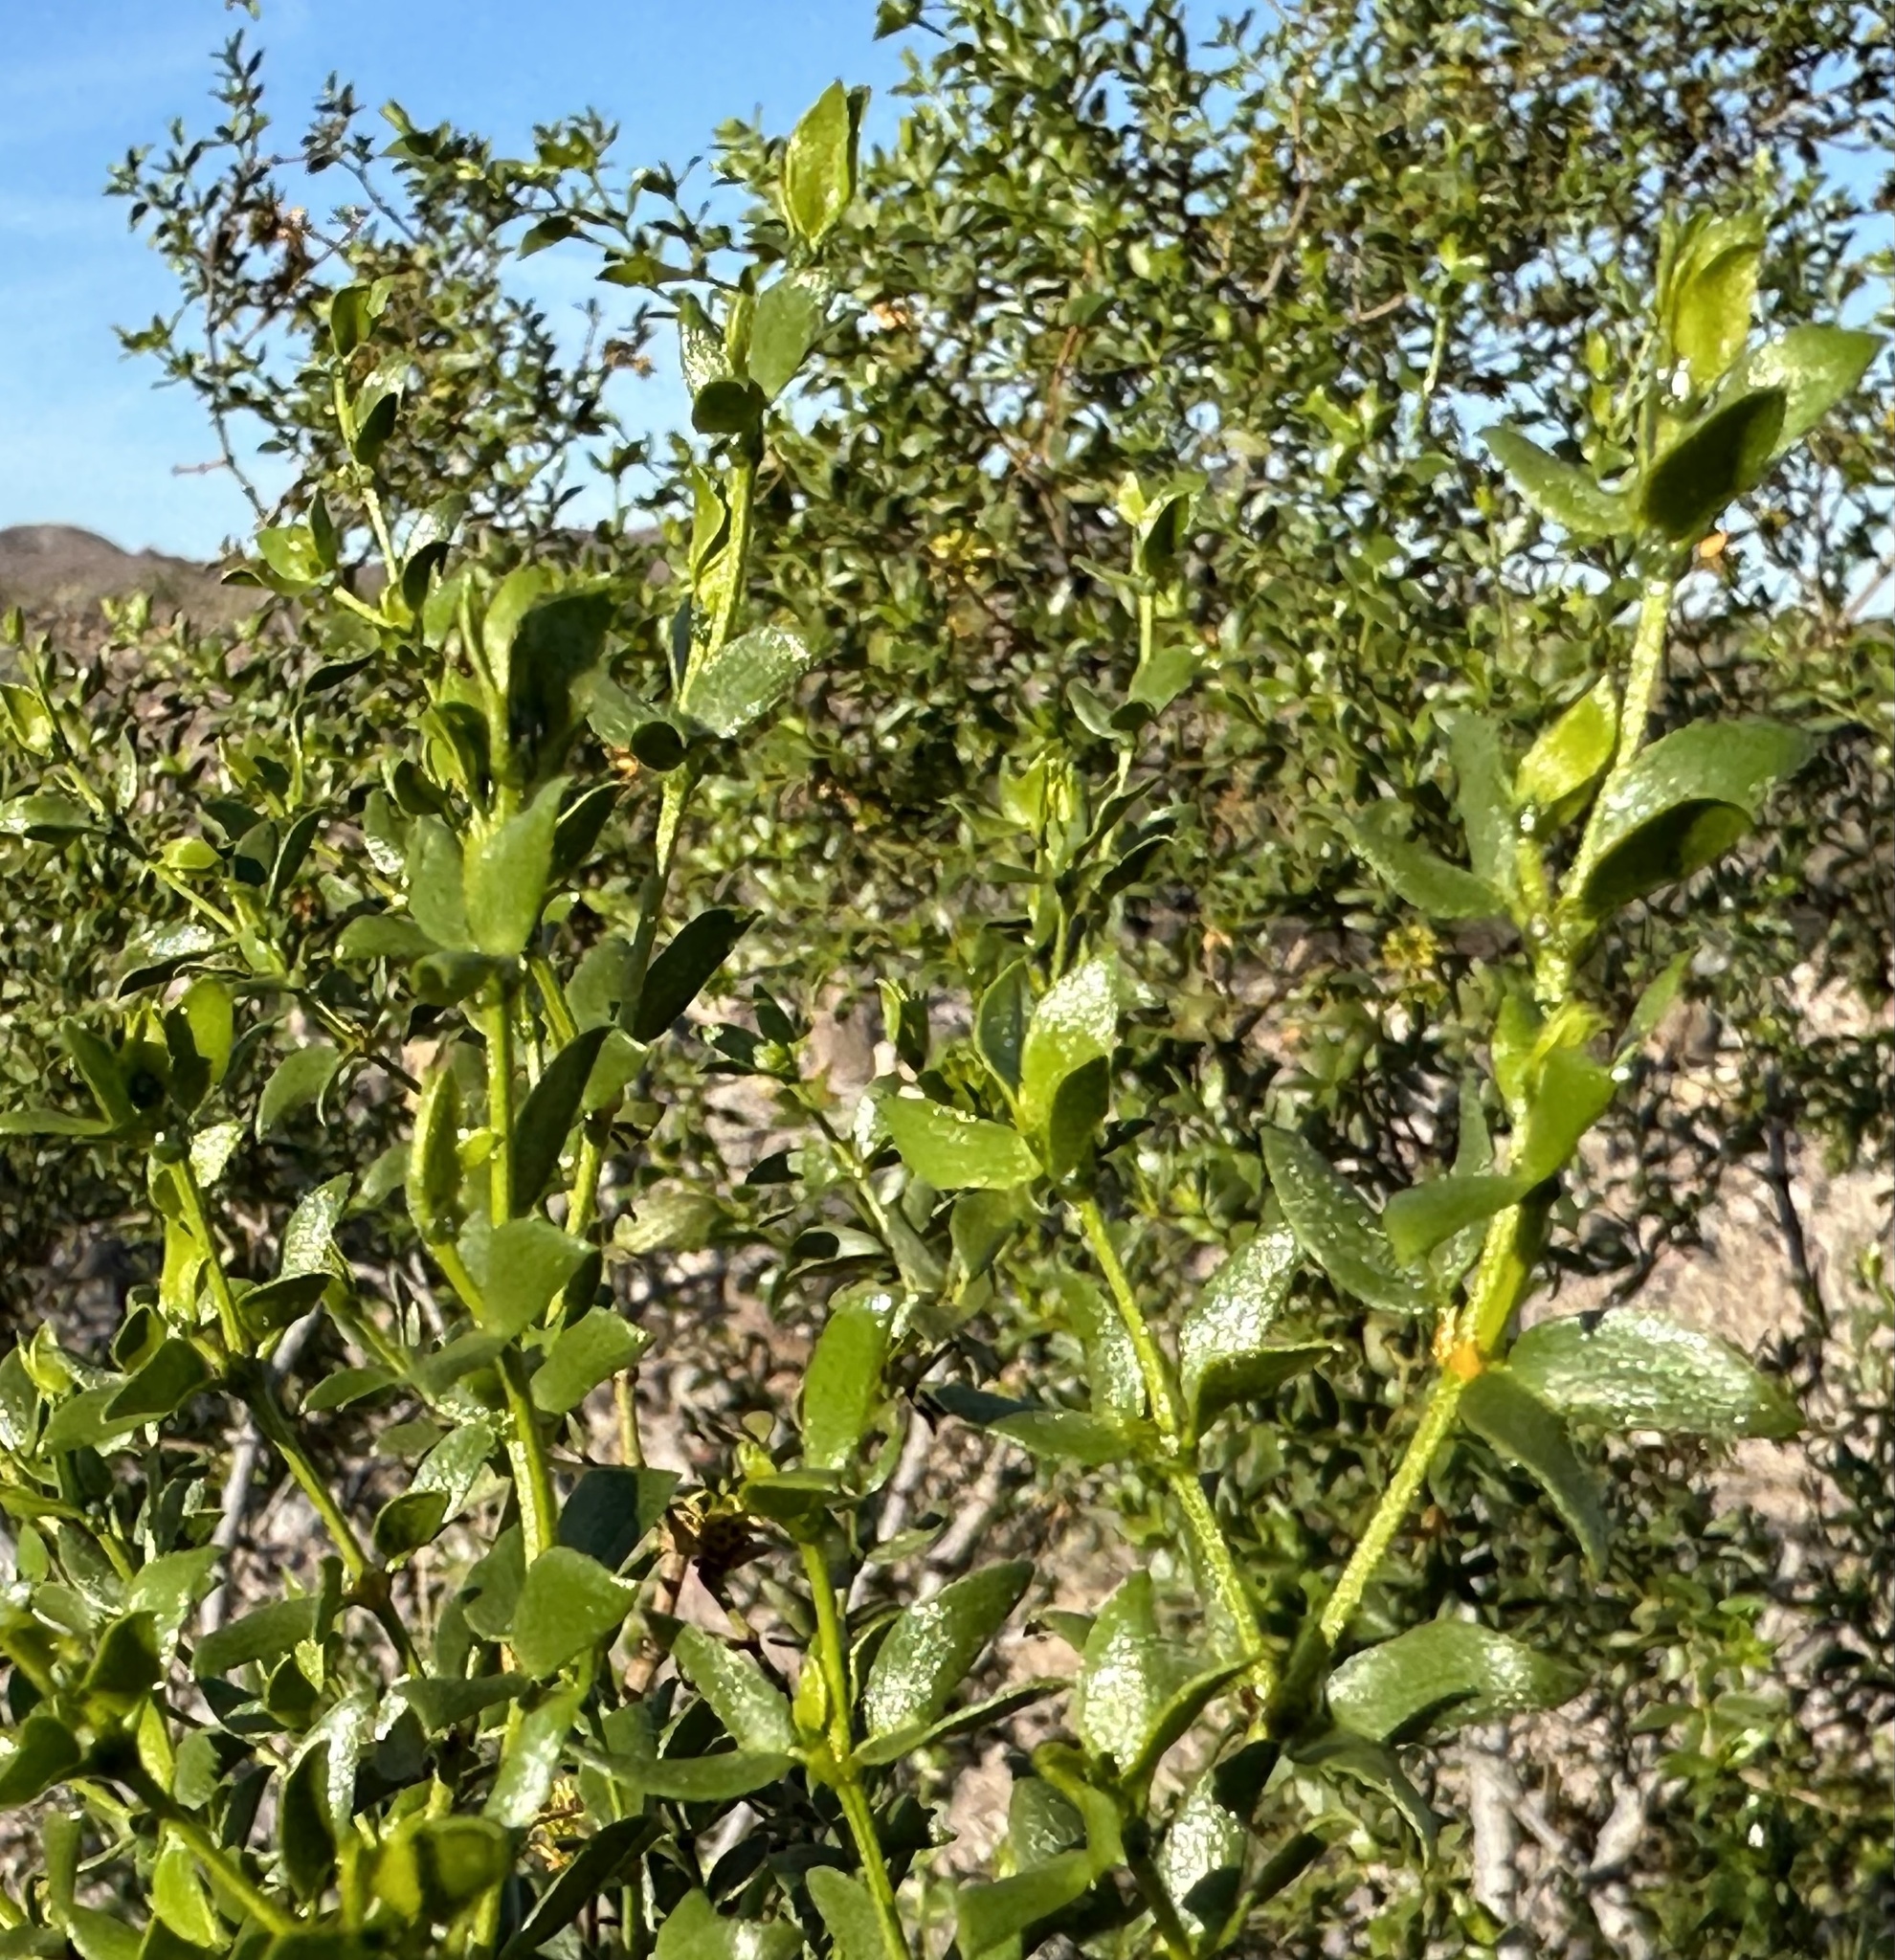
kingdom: Plantae
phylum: Tracheophyta
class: Magnoliopsida
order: Zygophyllales
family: Zygophyllaceae
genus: Larrea
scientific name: Larrea tridentata
